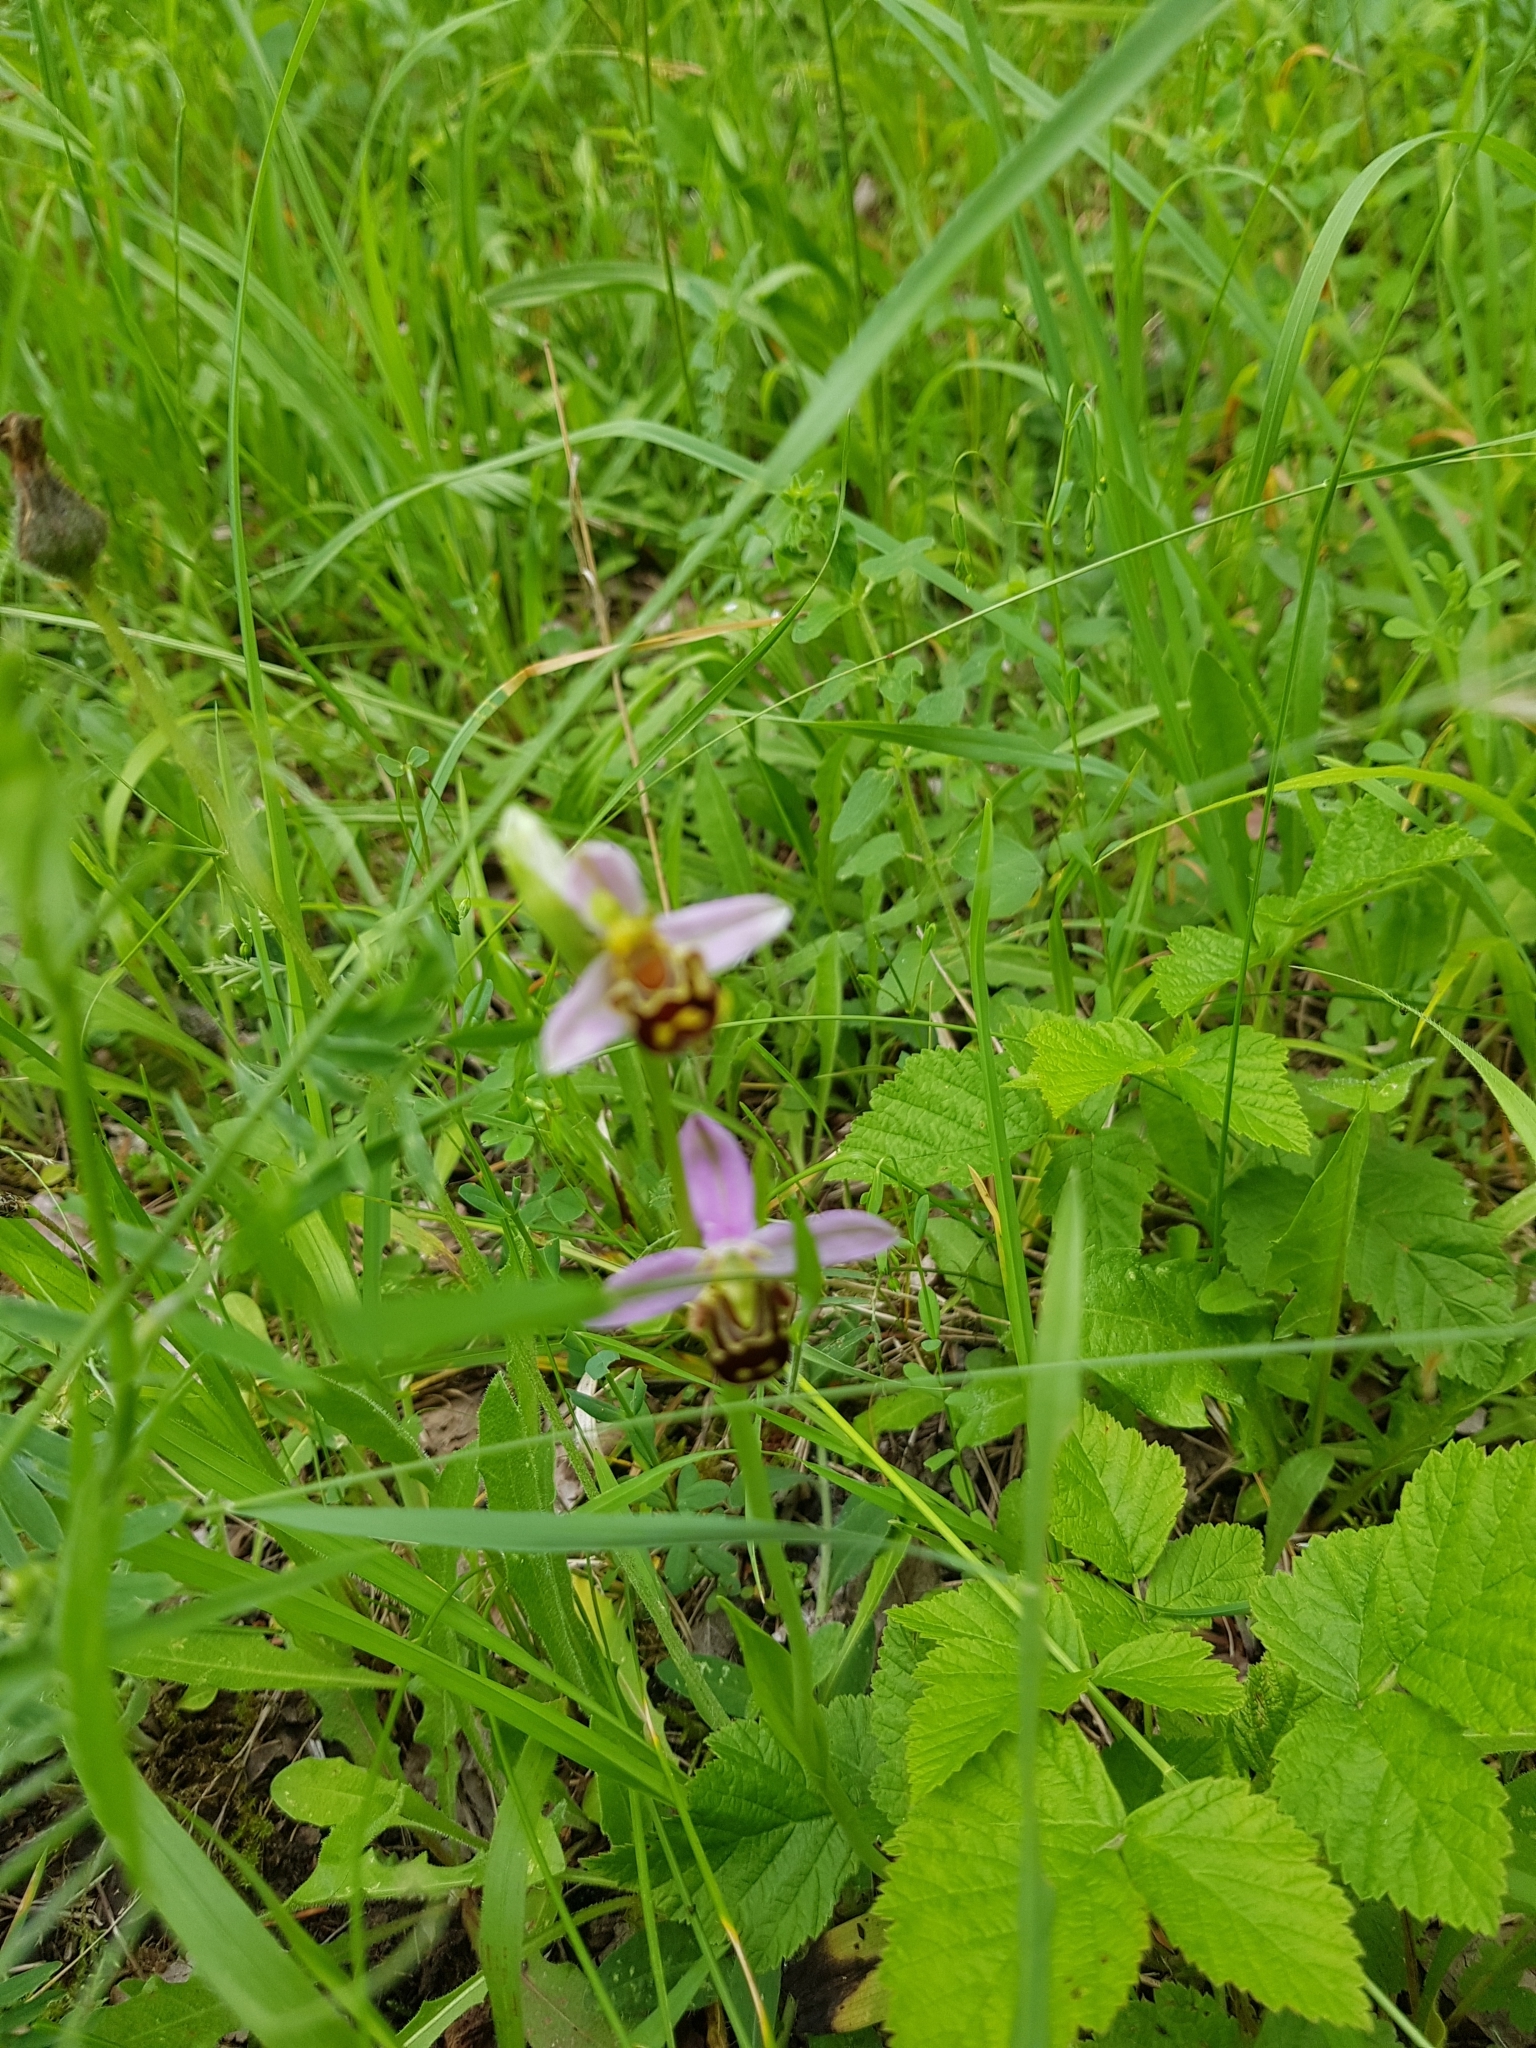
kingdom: Plantae
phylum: Tracheophyta
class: Liliopsida
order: Asparagales
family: Orchidaceae
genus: Ophrys
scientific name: Ophrys apifera
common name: Bee orchid
